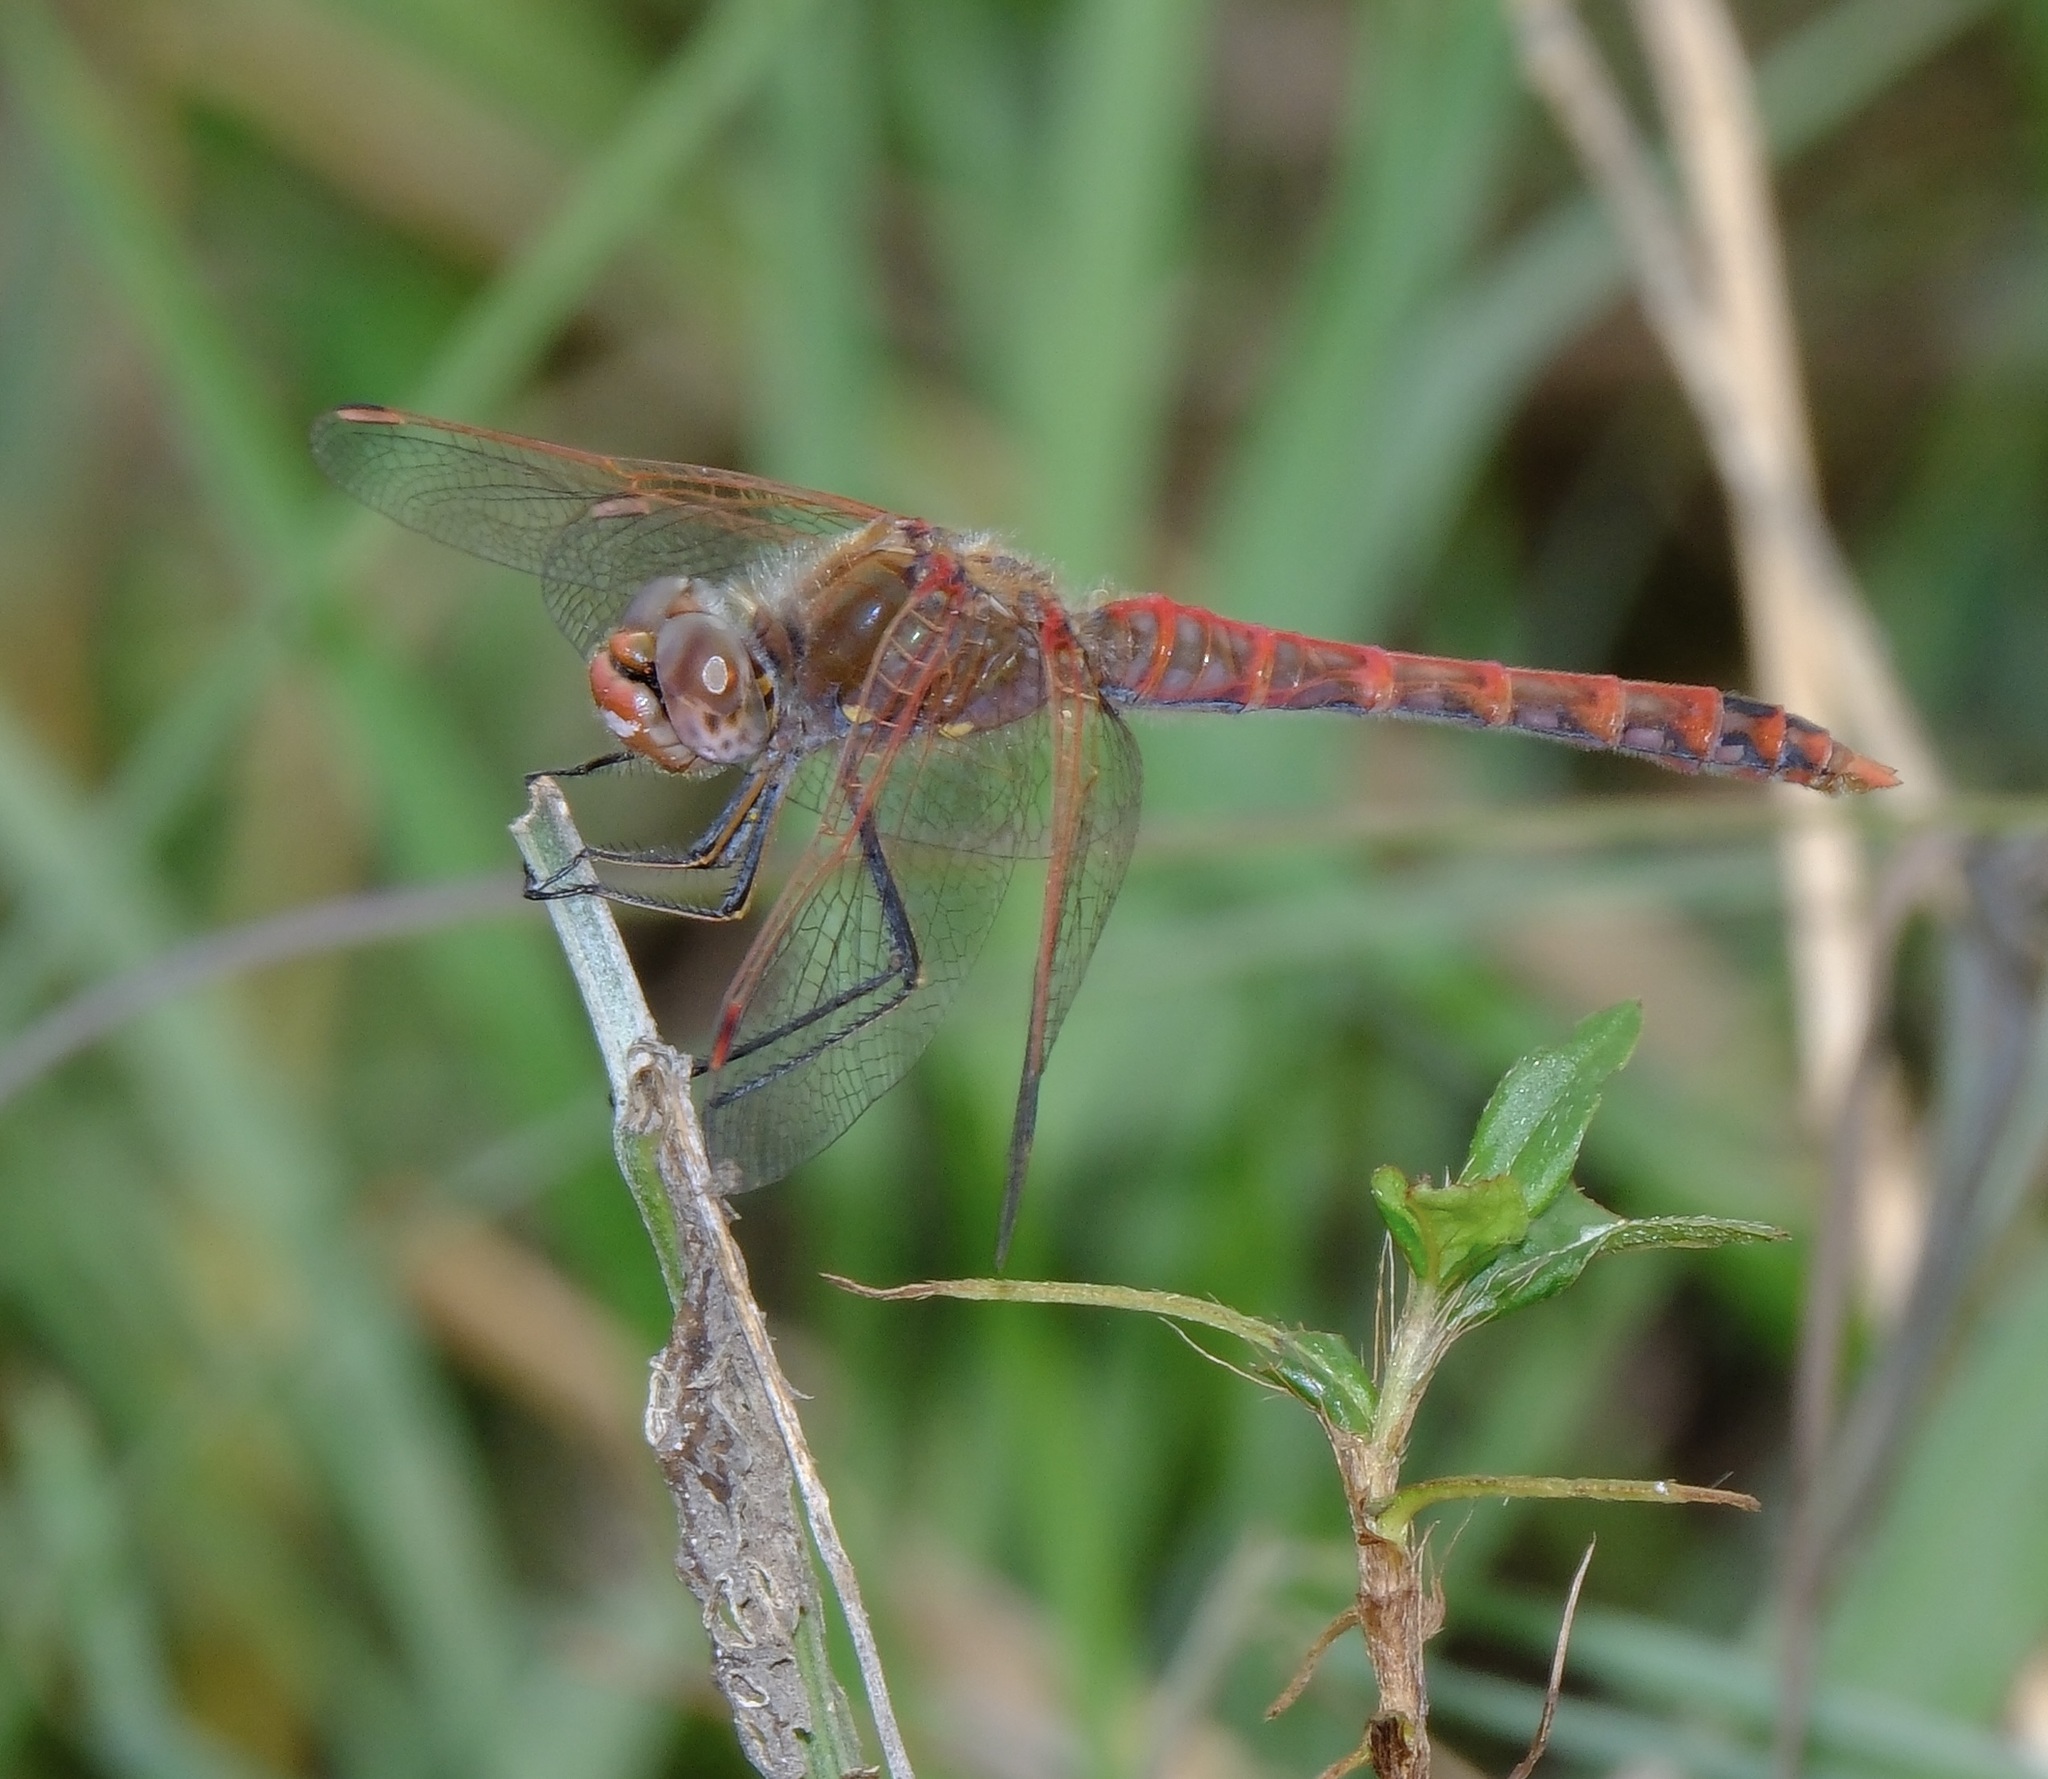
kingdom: Animalia
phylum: Arthropoda
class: Insecta
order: Odonata
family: Libellulidae
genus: Sympetrum
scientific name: Sympetrum corruptum
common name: Variegated meadowhawk
